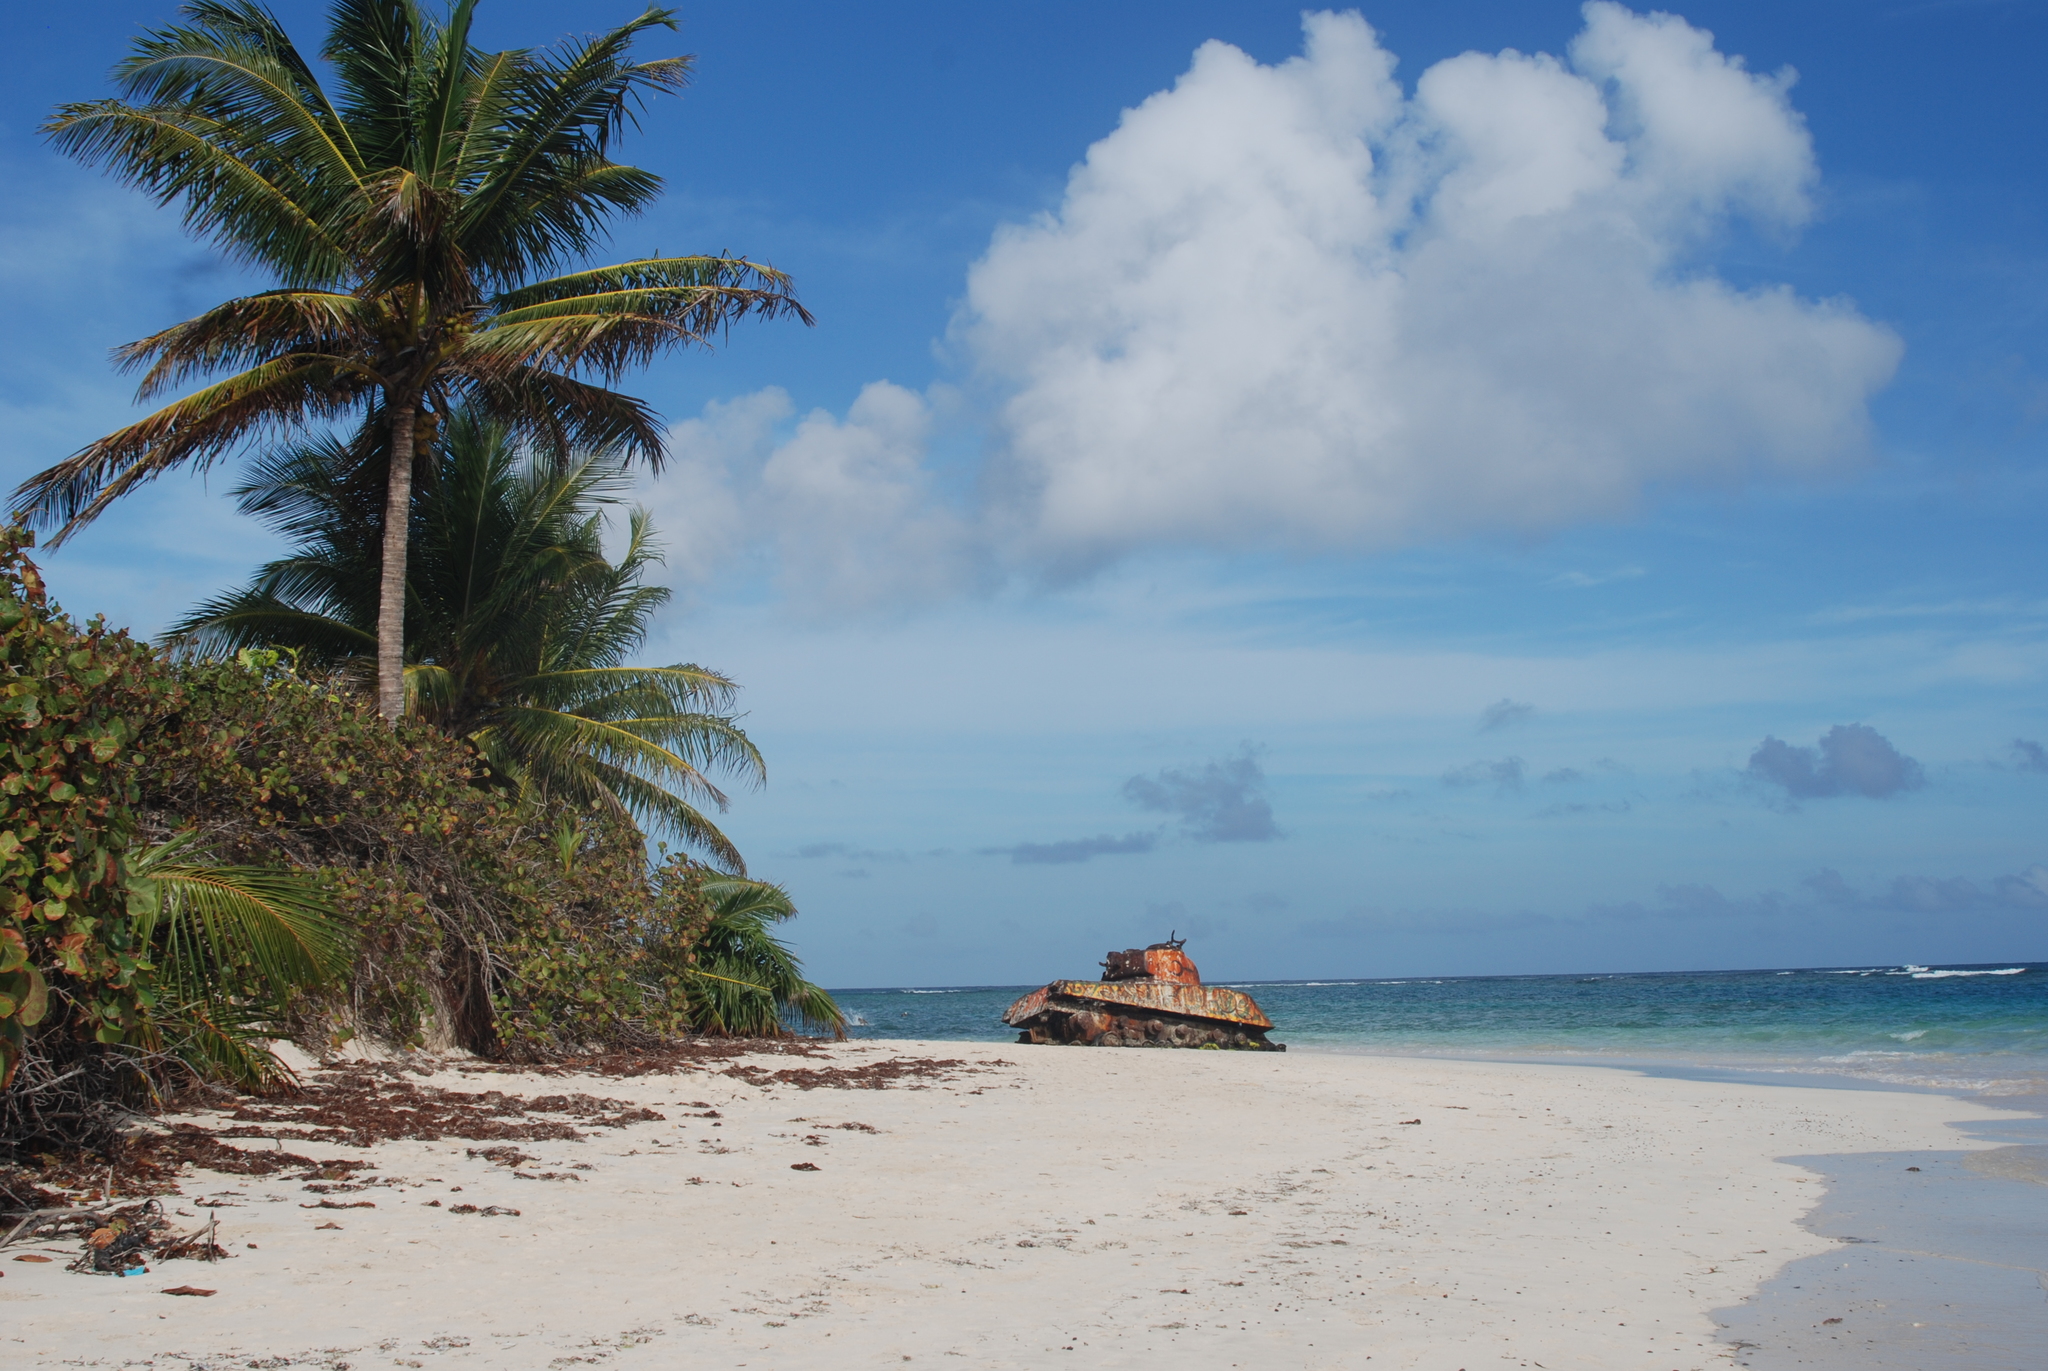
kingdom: Plantae
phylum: Tracheophyta
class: Liliopsida
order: Arecales
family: Arecaceae
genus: Cocos
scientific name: Cocos nucifera
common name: Coconut palm
